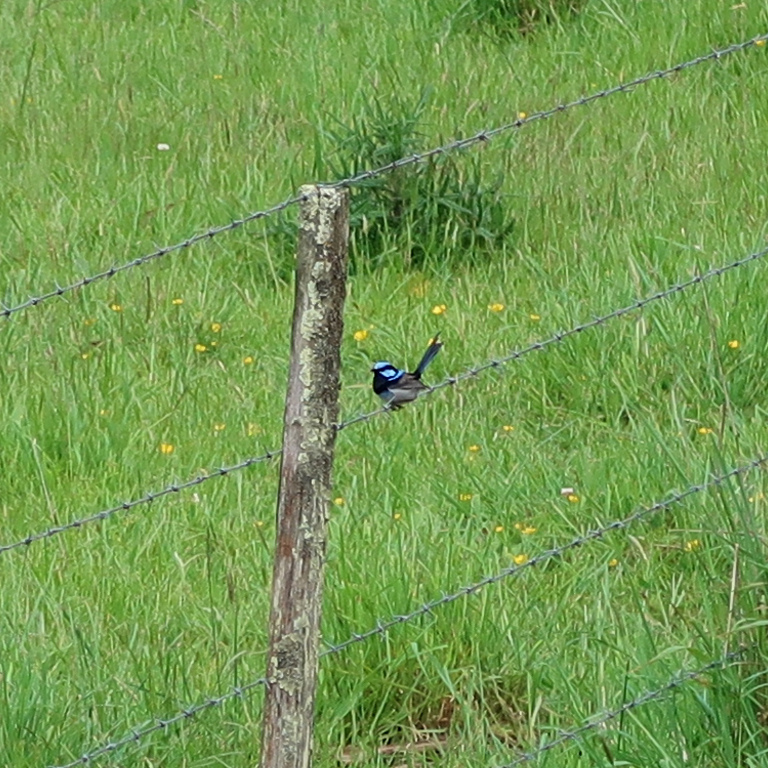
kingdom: Animalia
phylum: Chordata
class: Aves
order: Passeriformes
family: Maluridae
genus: Malurus
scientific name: Malurus cyaneus
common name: Superb fairywren
